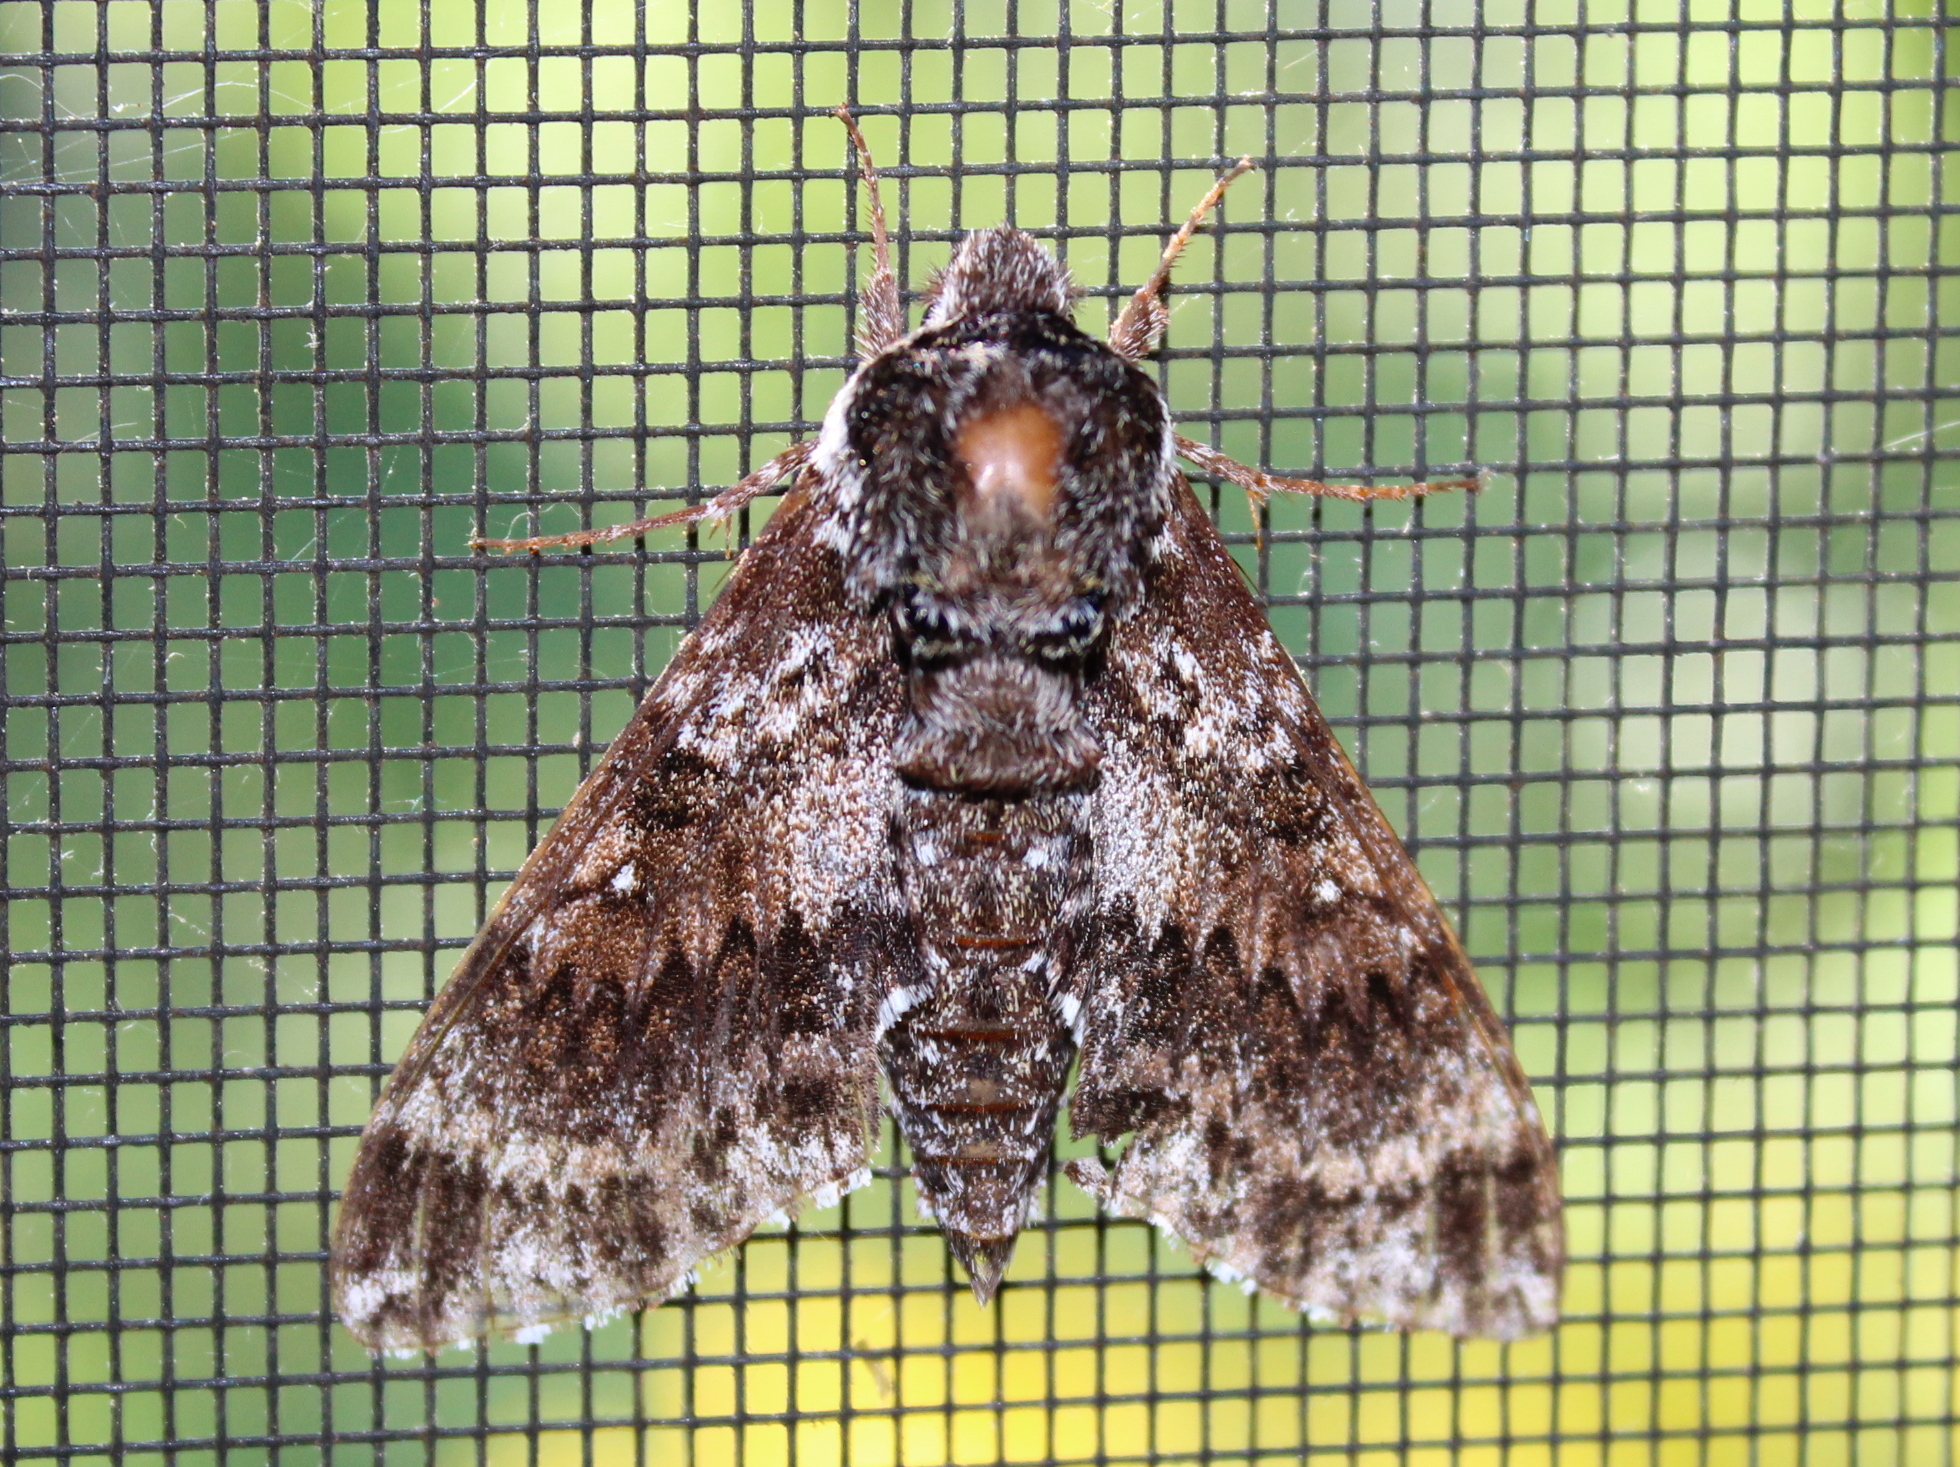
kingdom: Animalia
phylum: Arthropoda
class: Insecta
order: Lepidoptera
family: Sphingidae
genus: Dolba
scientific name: Dolba hyloeus
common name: Pawpaw sphinx
